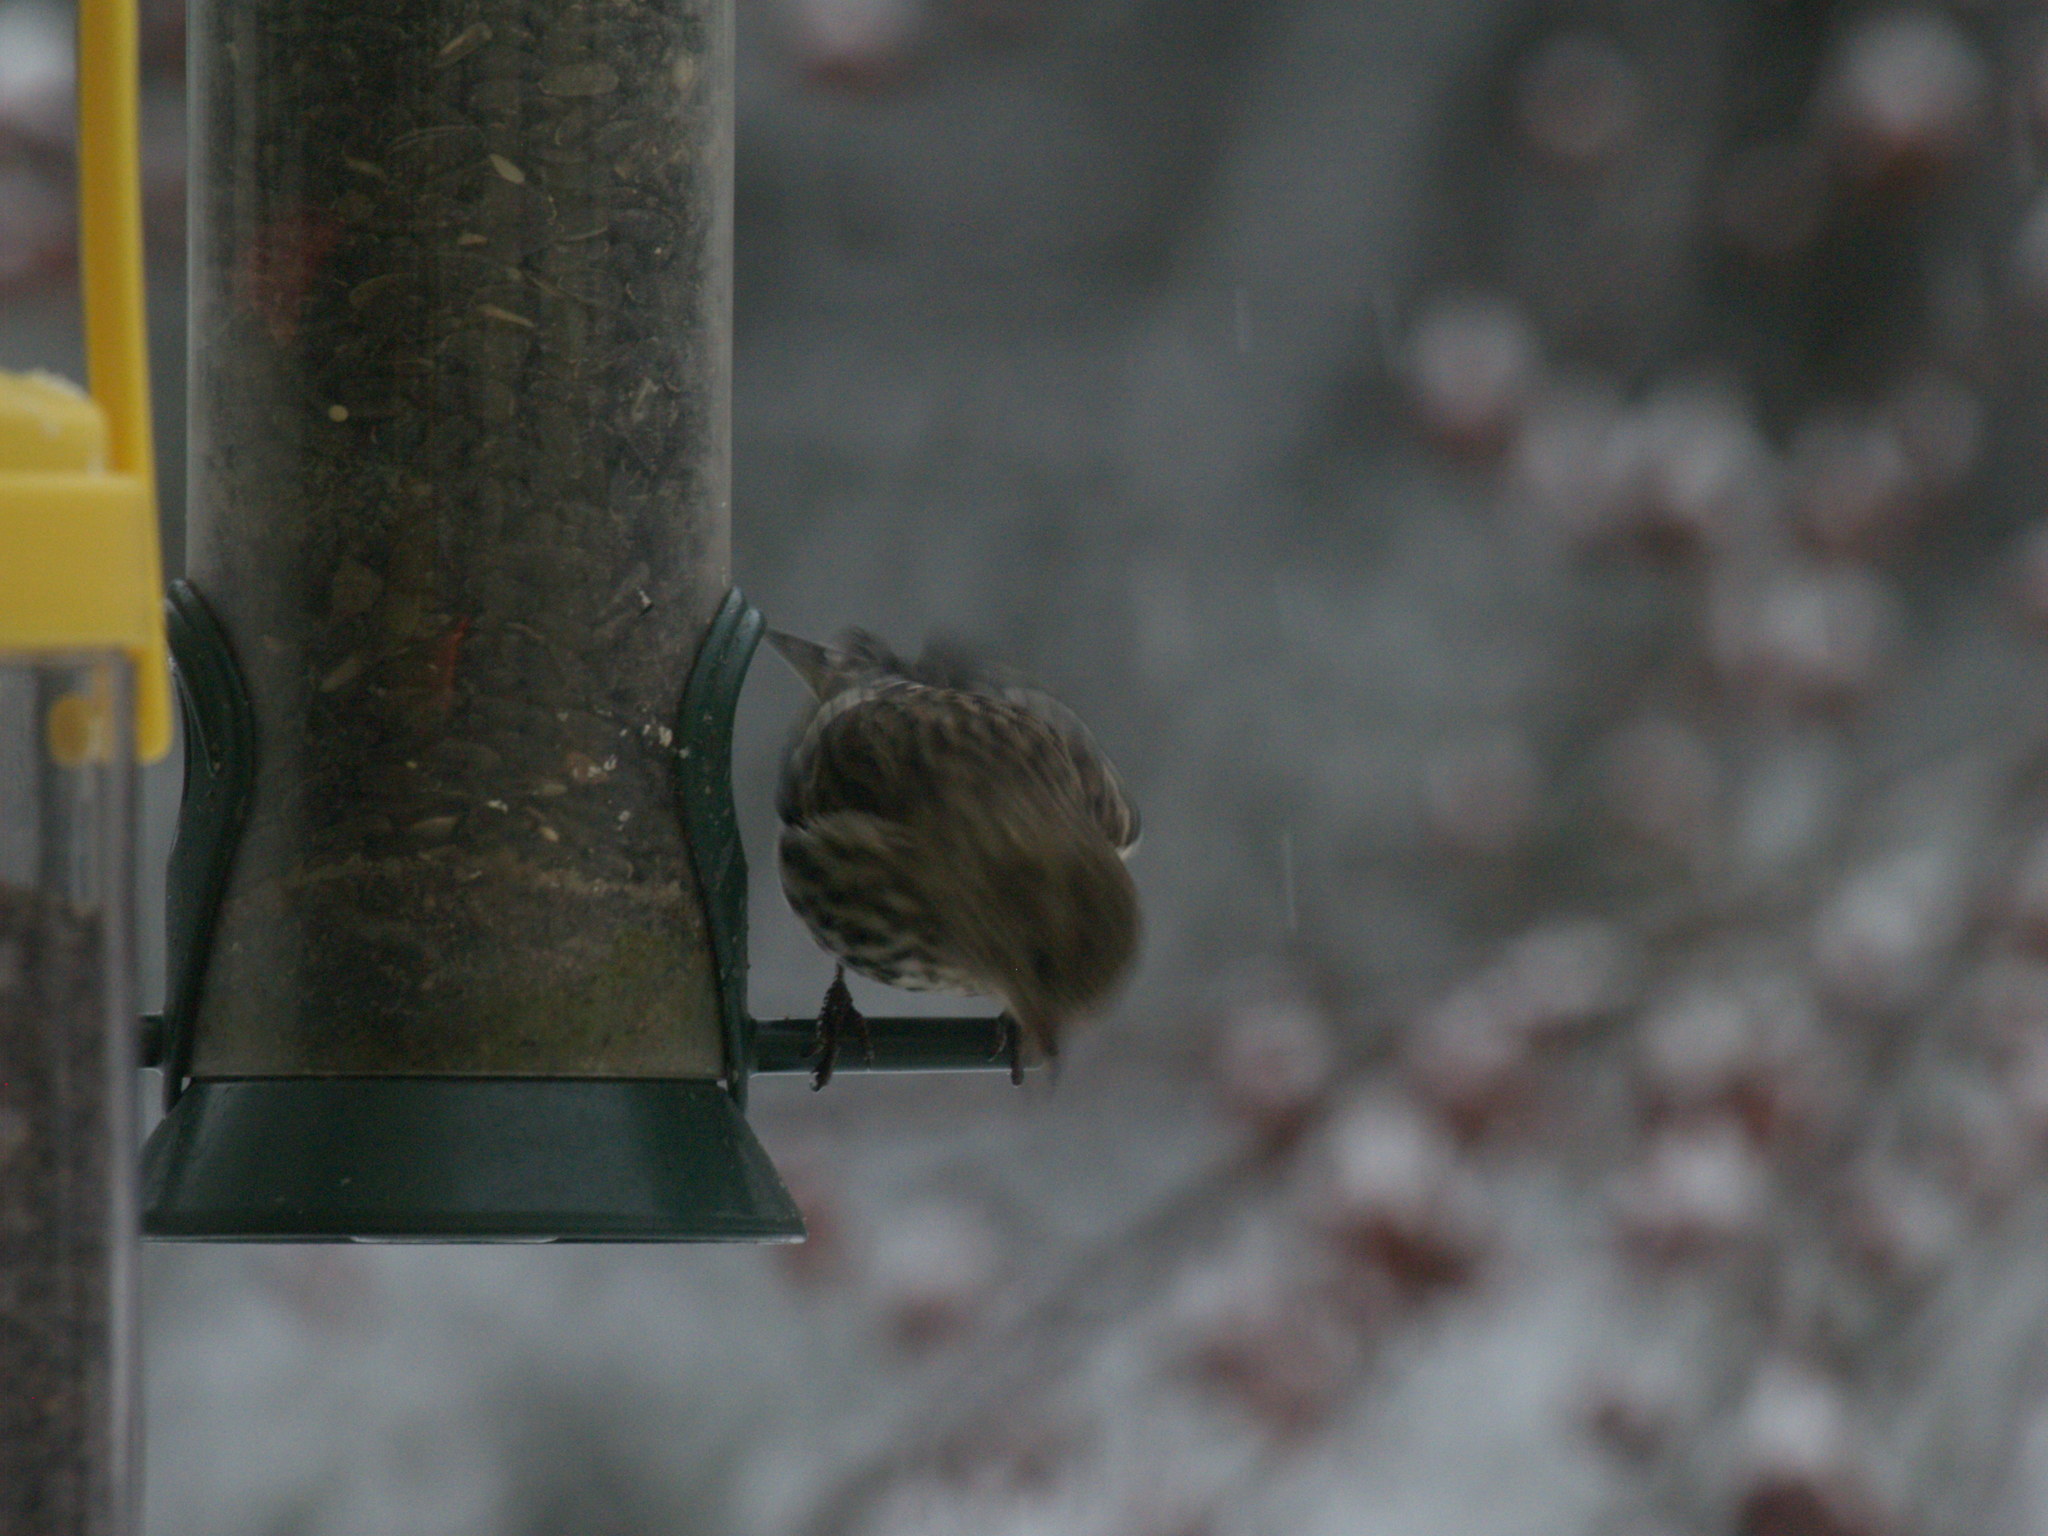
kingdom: Animalia
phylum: Chordata
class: Aves
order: Passeriformes
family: Fringillidae
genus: Spinus
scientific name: Spinus pinus
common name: Pine siskin
